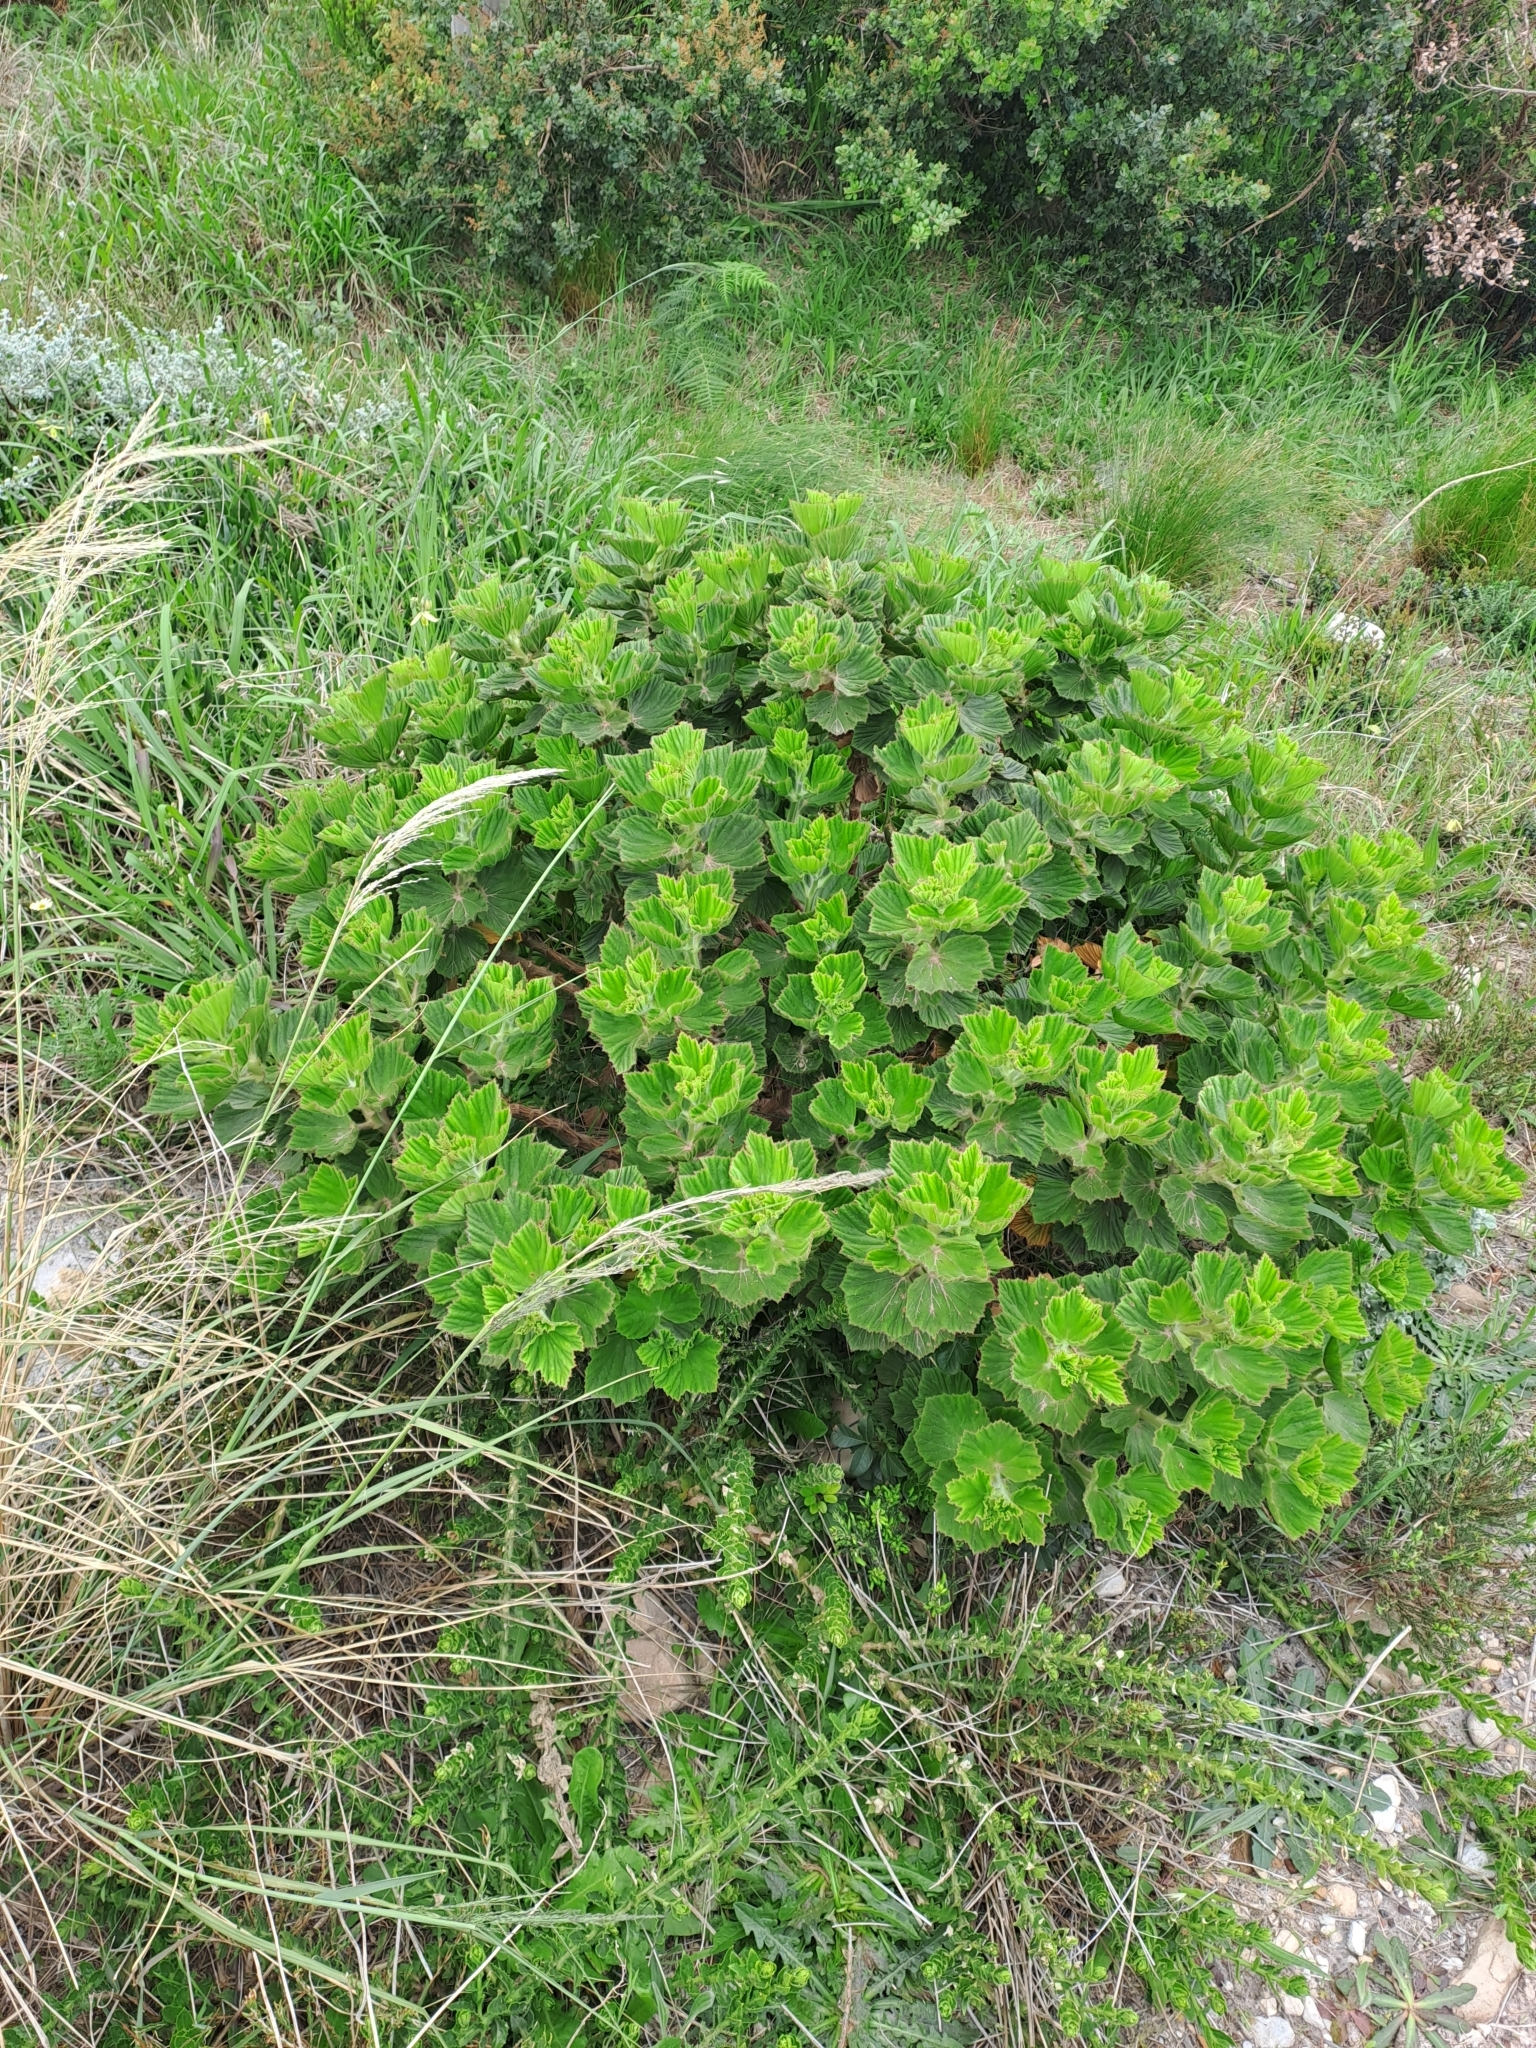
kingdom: Plantae
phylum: Tracheophyta
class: Magnoliopsida
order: Geraniales
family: Geraniaceae
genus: Pelargonium
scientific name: Pelargonium cucullatum
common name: Tree pelargonium
